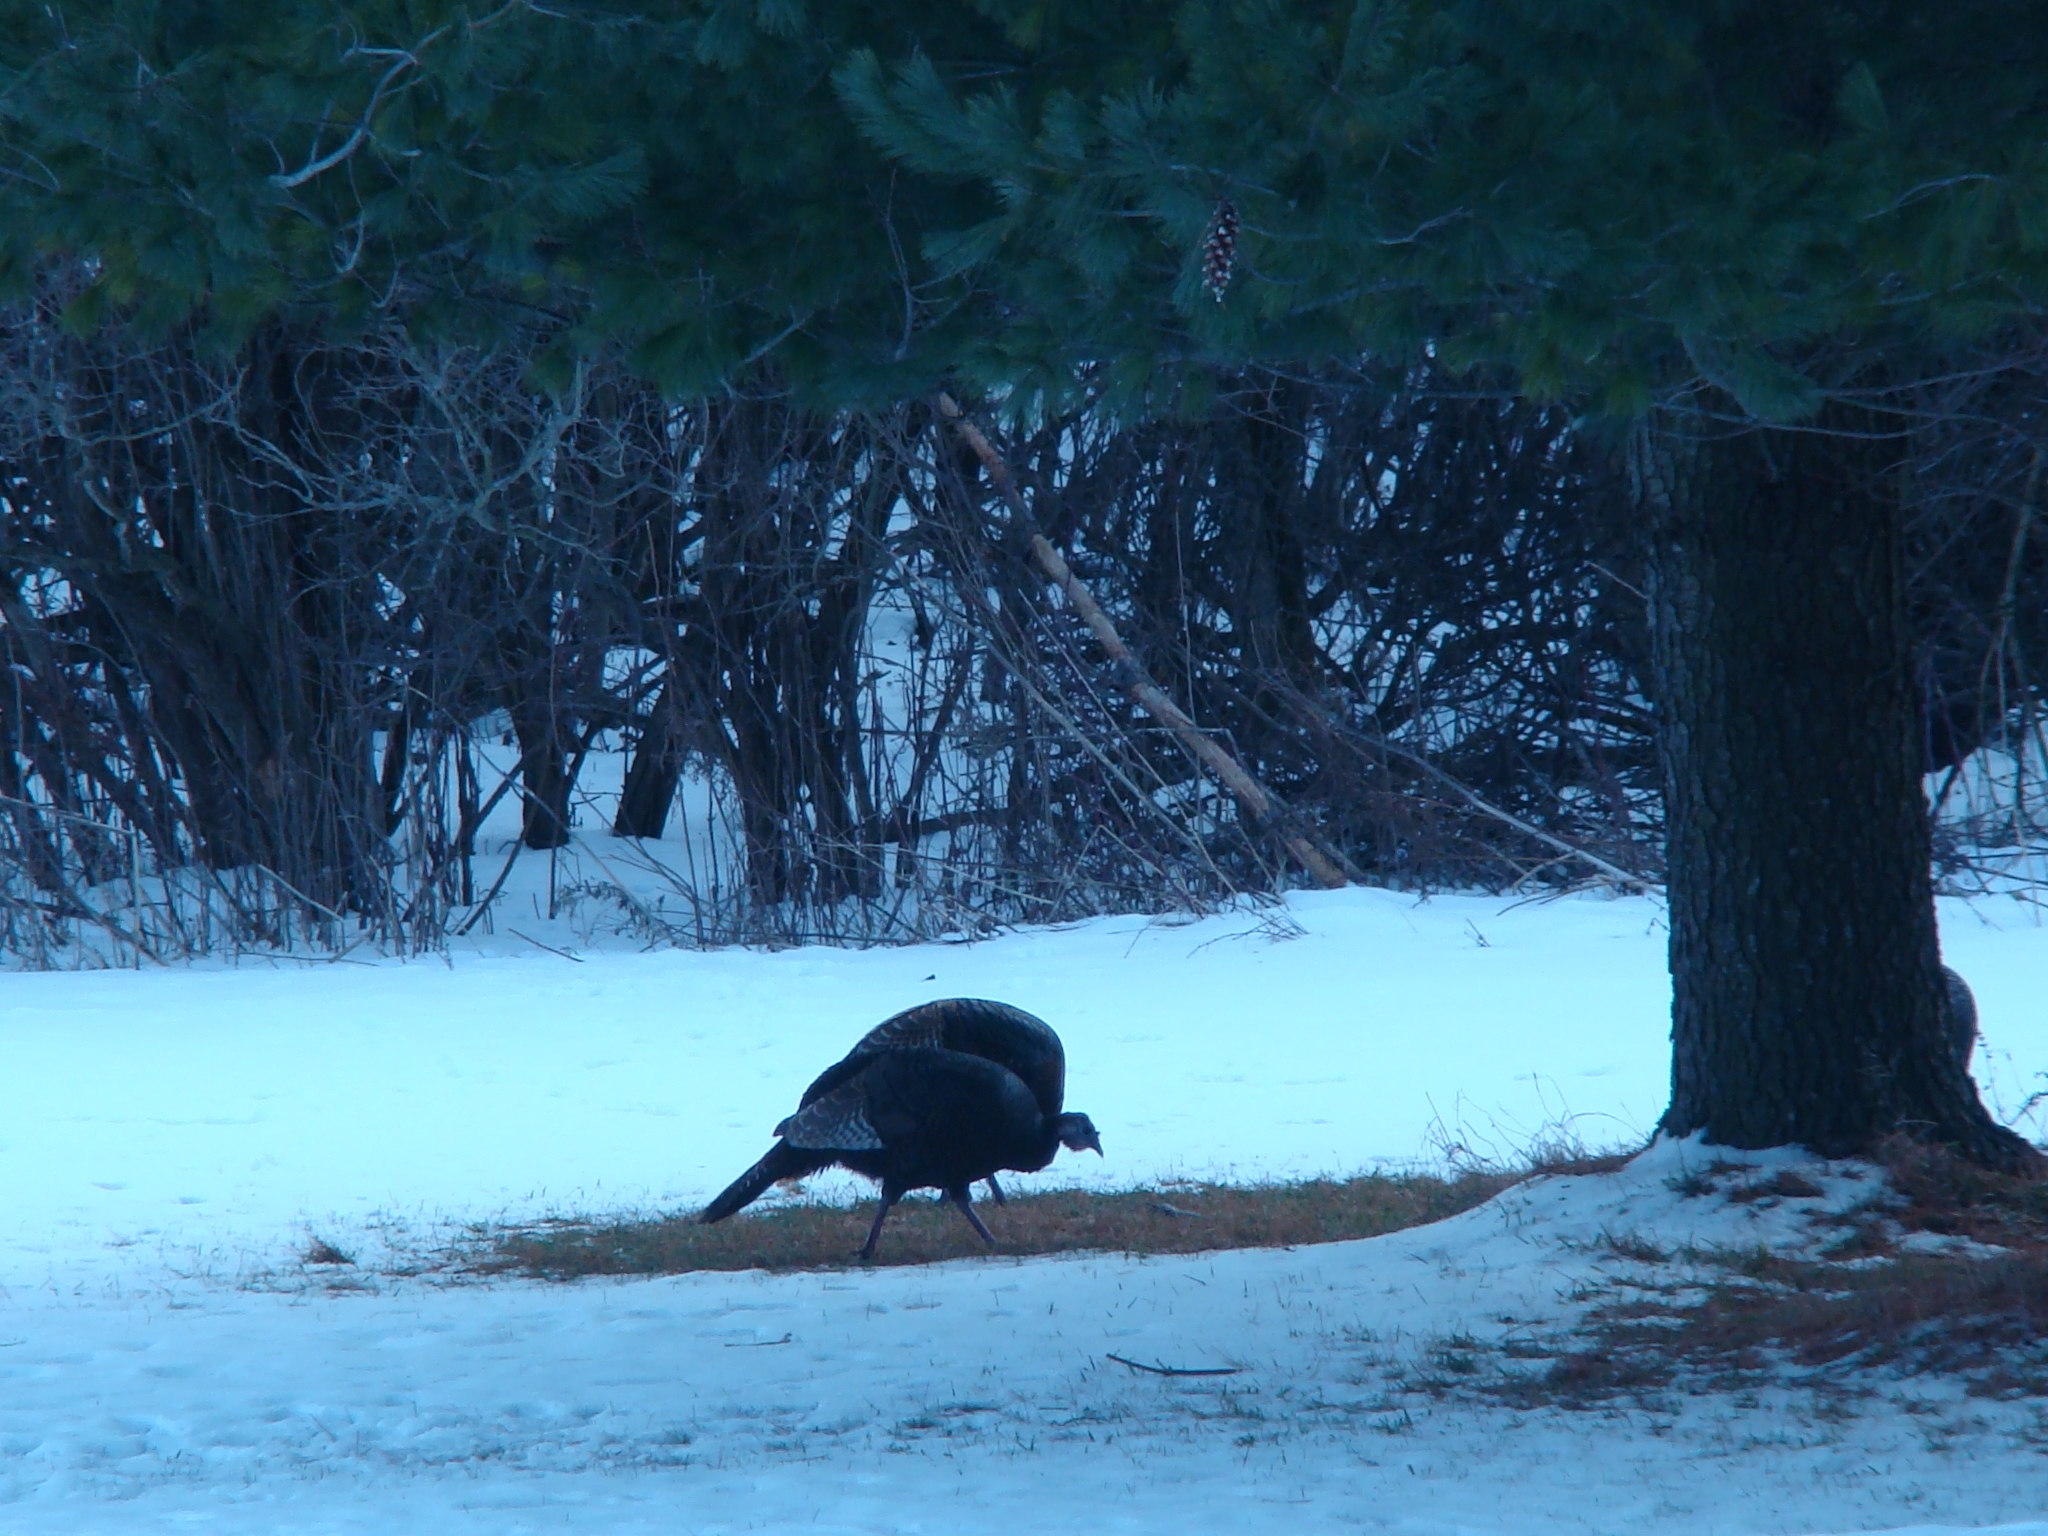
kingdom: Animalia
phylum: Chordata
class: Aves
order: Galliformes
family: Phasianidae
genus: Meleagris
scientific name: Meleagris gallopavo
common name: Wild turkey
